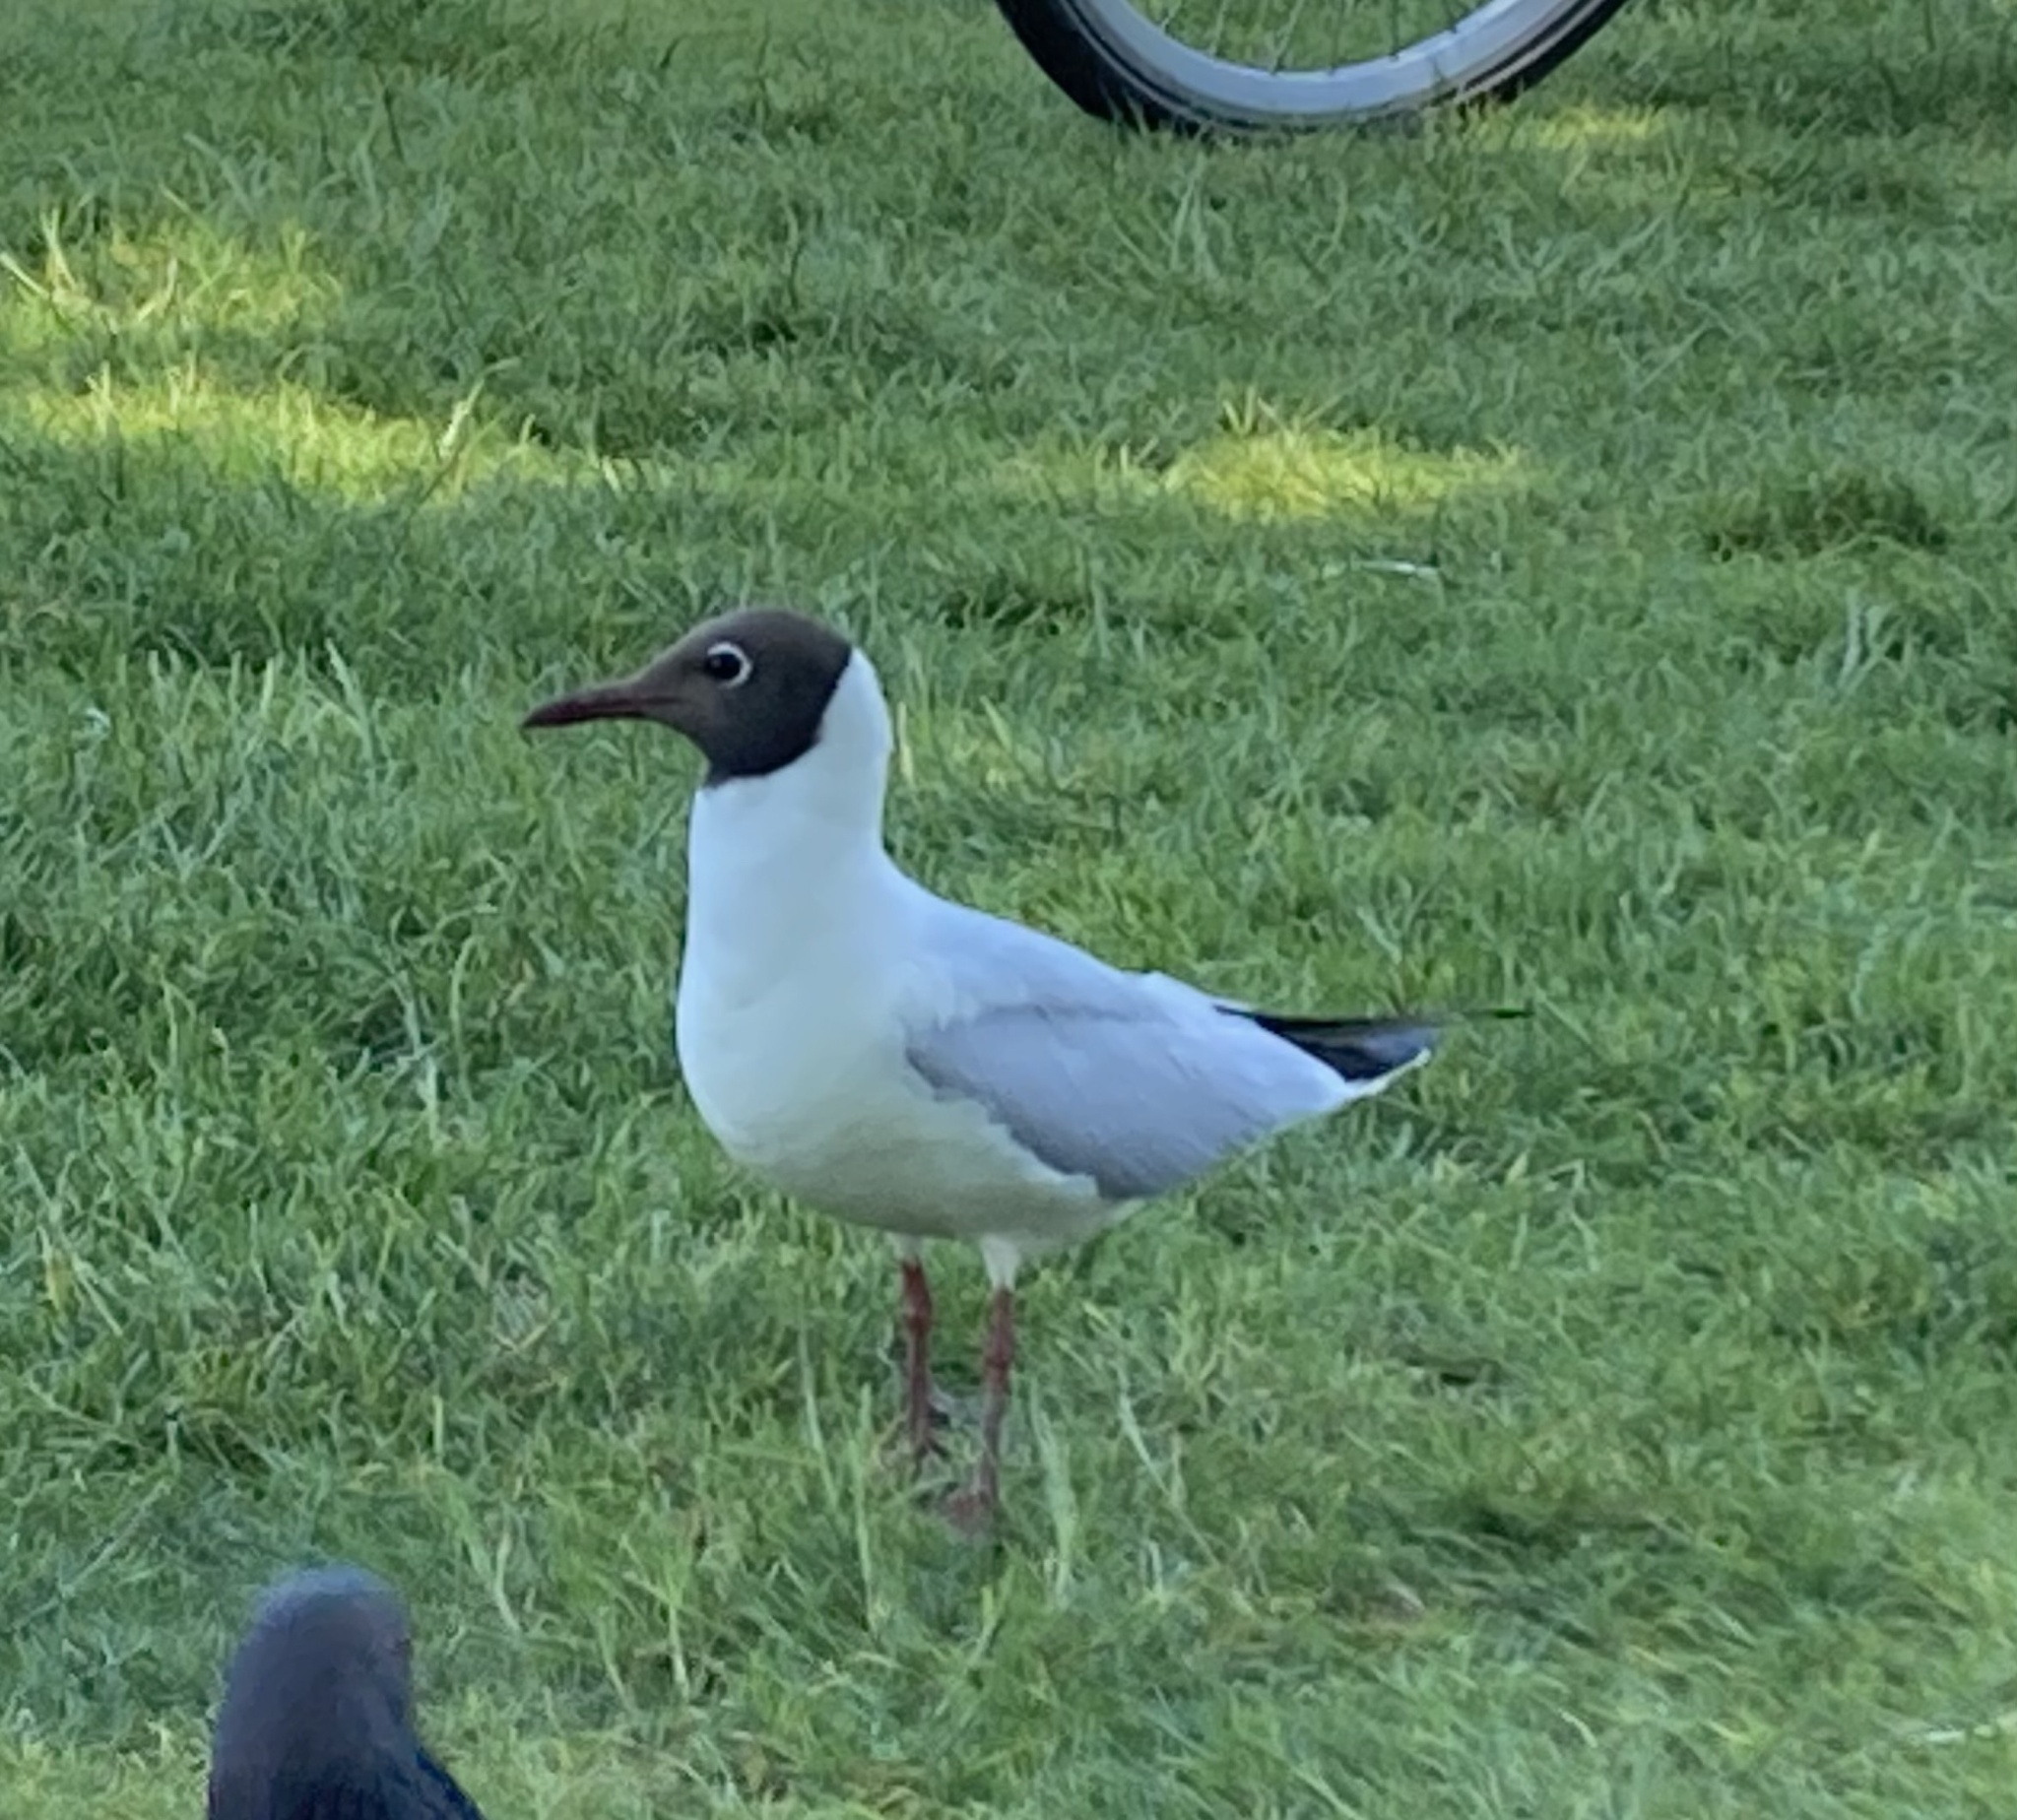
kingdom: Animalia
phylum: Chordata
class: Aves
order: Charadriiformes
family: Laridae
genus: Chroicocephalus
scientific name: Chroicocephalus ridibundus
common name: Black-headed gull
